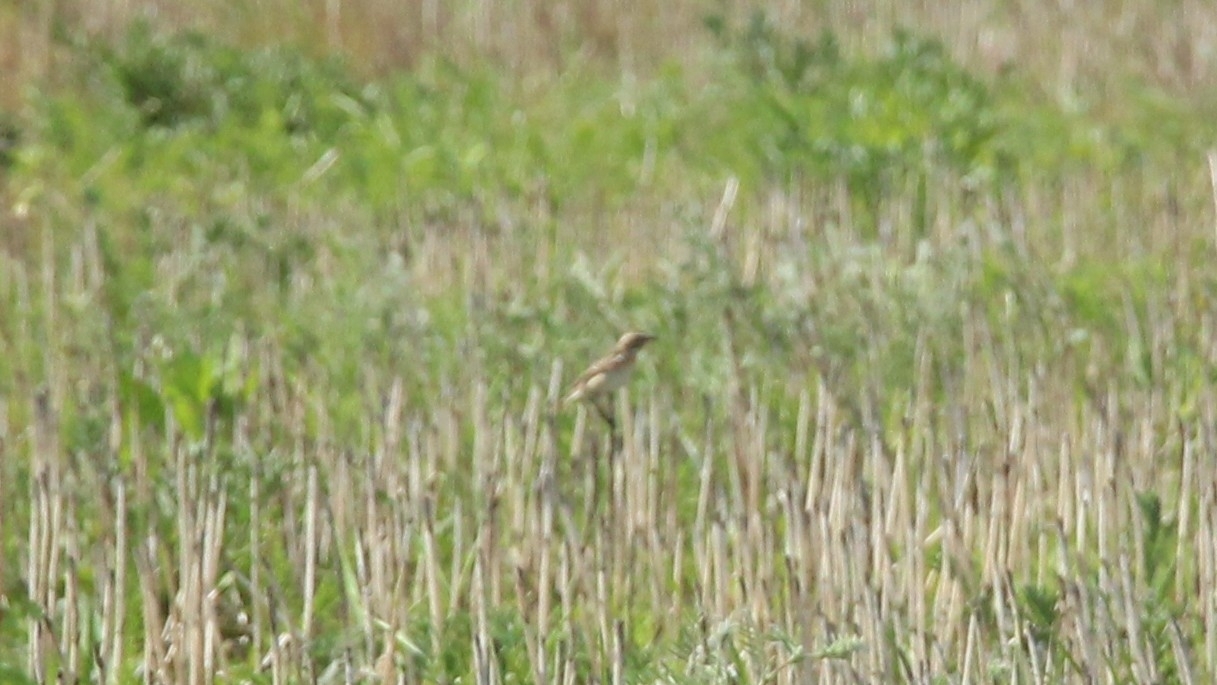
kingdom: Animalia
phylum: Chordata
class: Aves
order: Passeriformes
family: Muscicapidae
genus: Saxicola
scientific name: Saxicola rubetra
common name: Whinchat
